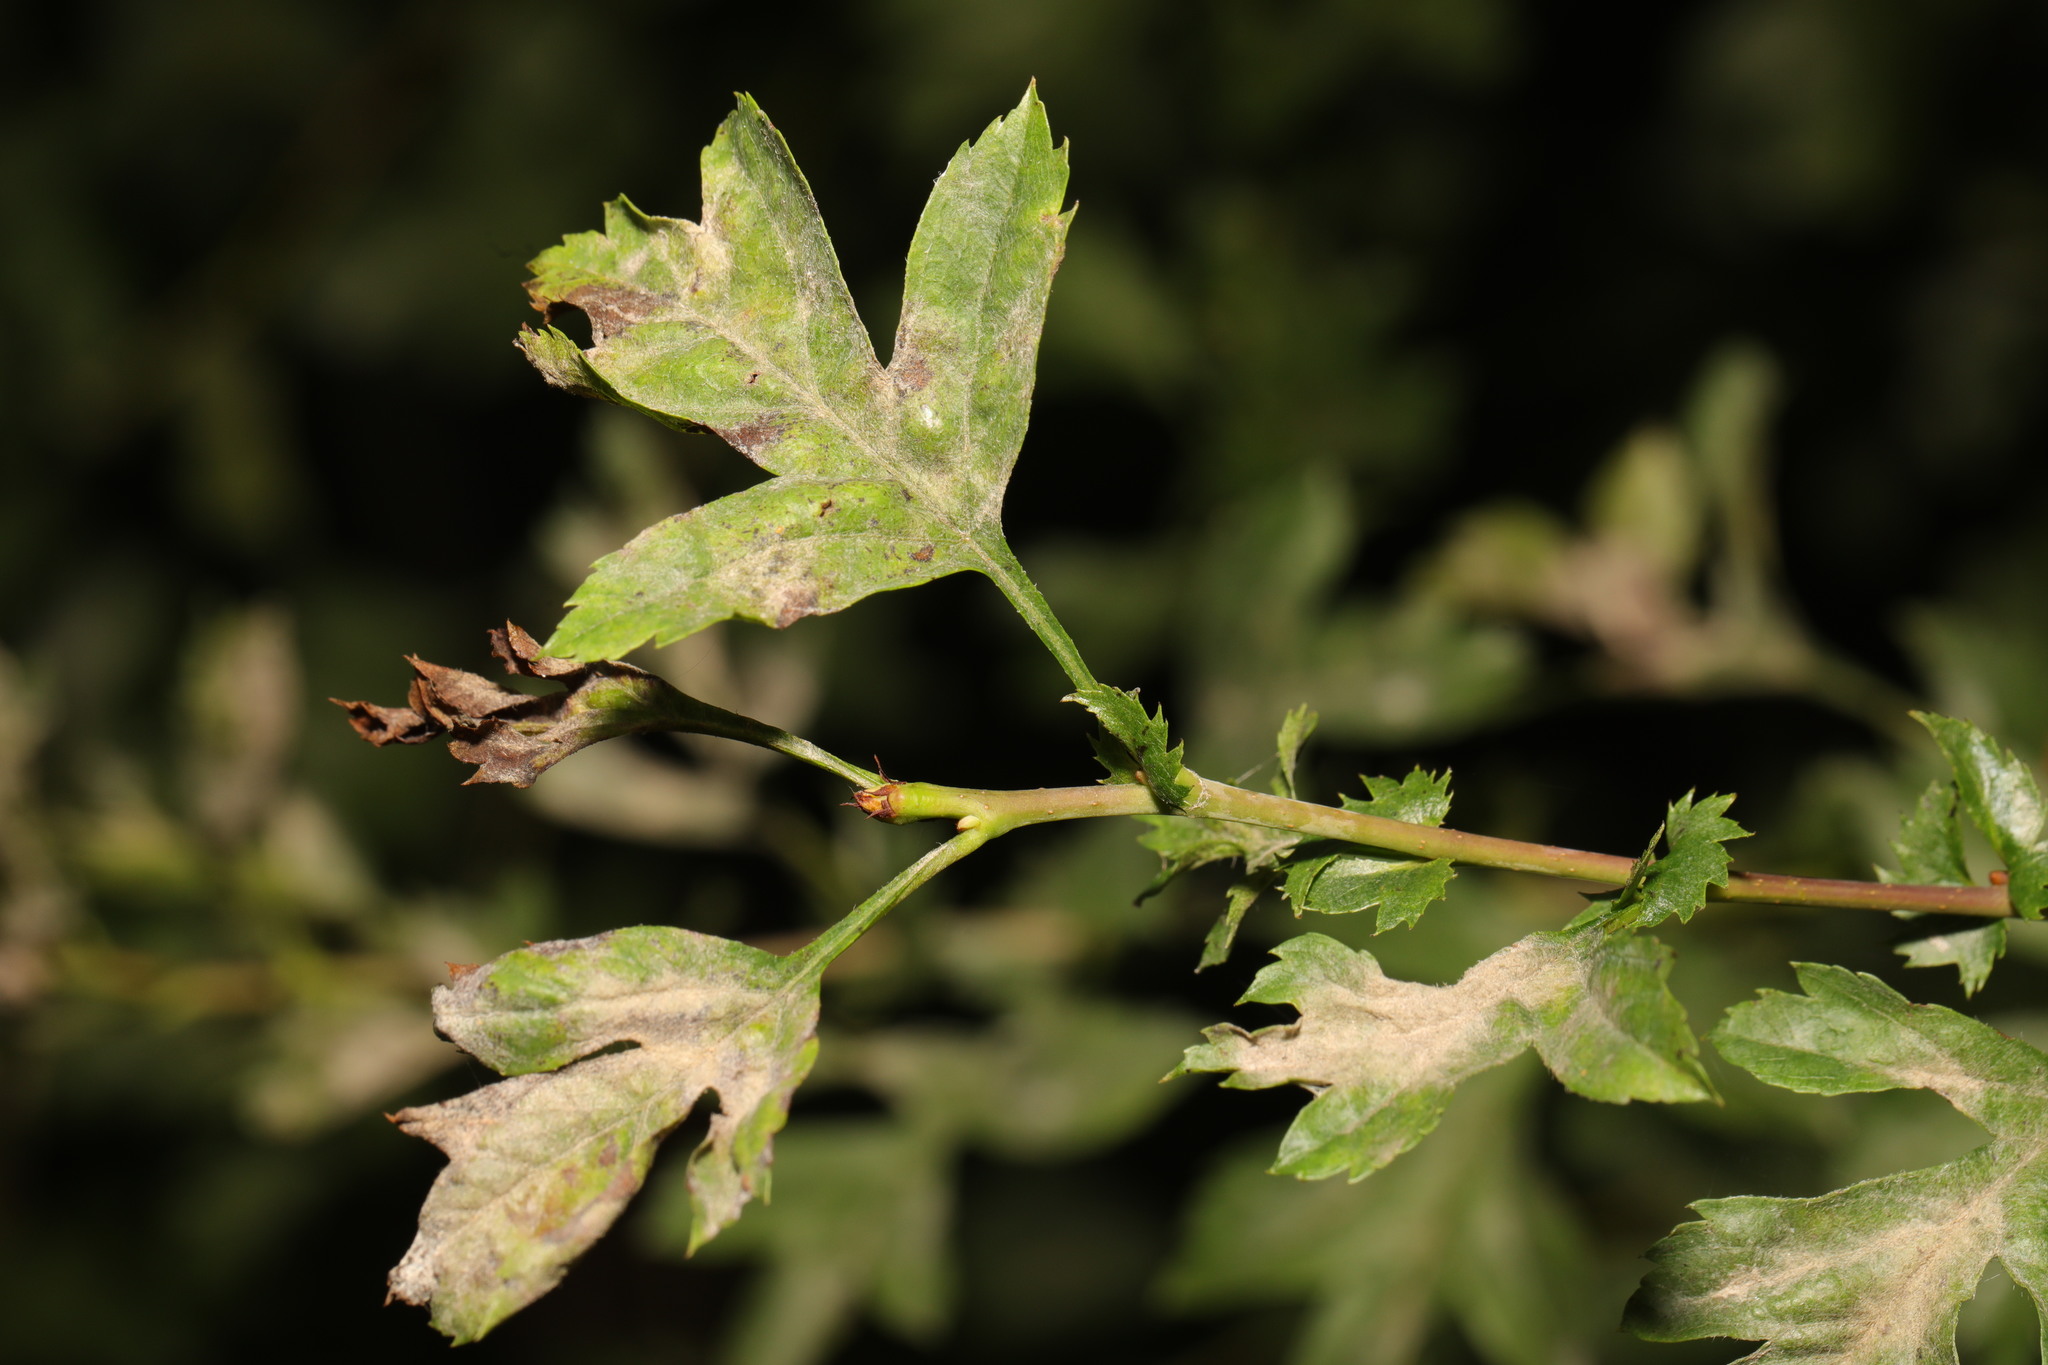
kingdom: Fungi
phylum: Ascomycota
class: Leotiomycetes
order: Helotiales
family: Erysiphaceae
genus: Podosphaera
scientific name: Podosphaera clandestina
